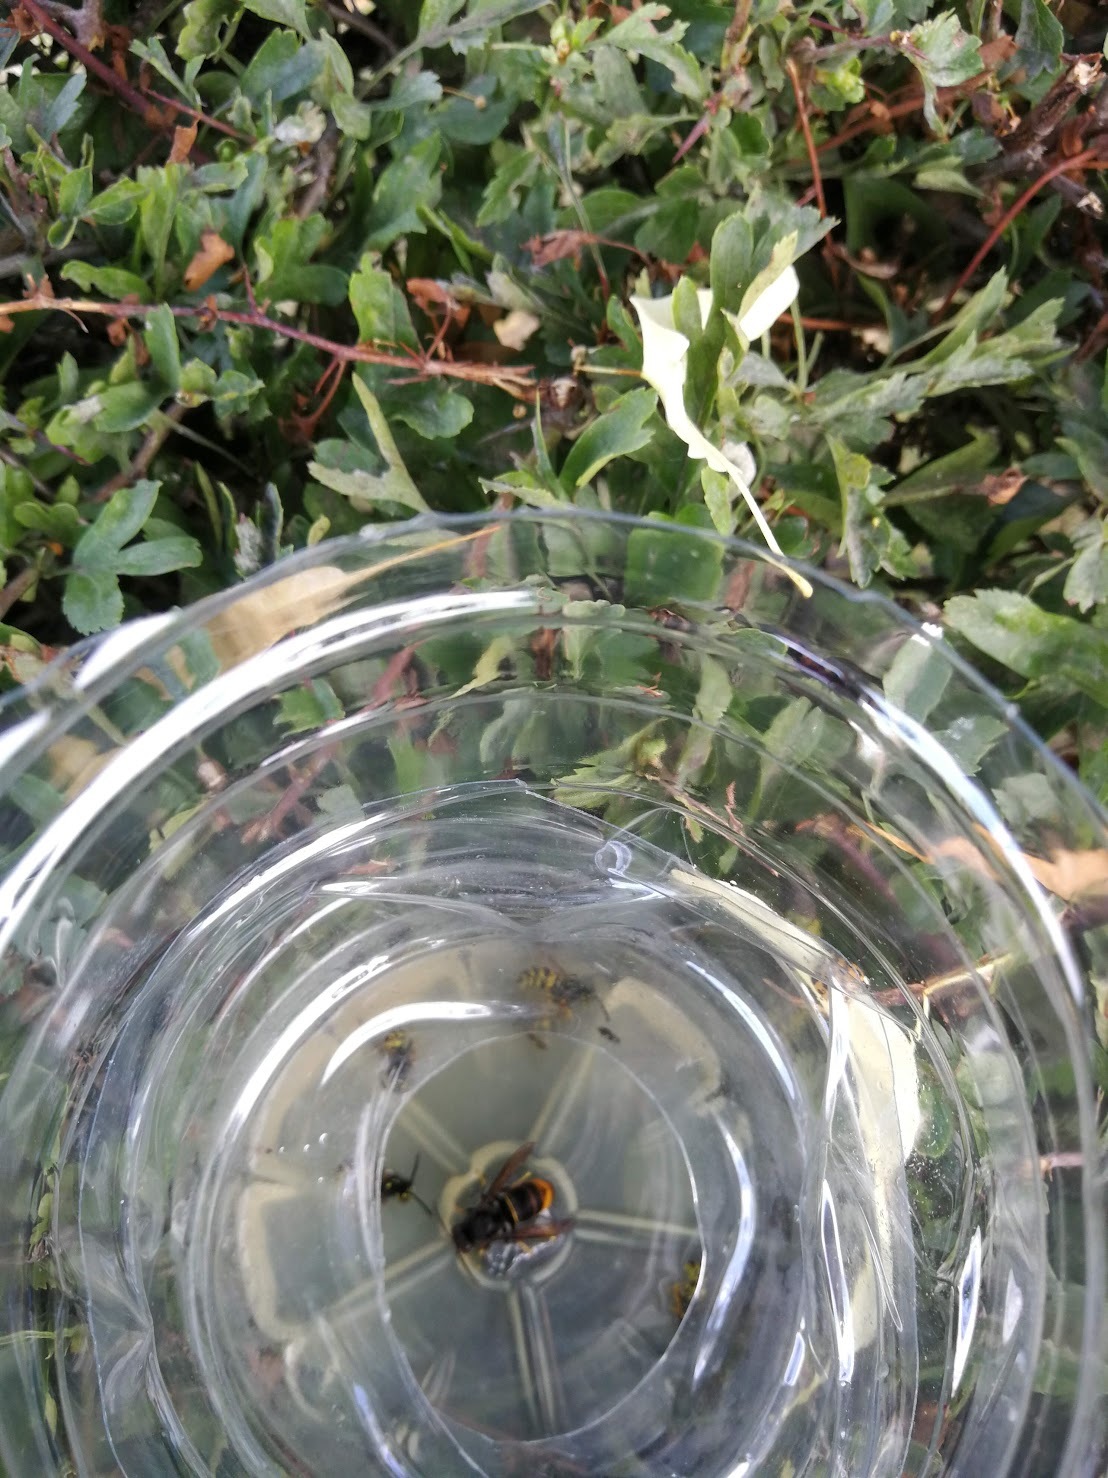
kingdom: Animalia
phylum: Arthropoda
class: Insecta
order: Hymenoptera
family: Vespidae
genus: Vespa
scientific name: Vespa velutina
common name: Asian hornet
